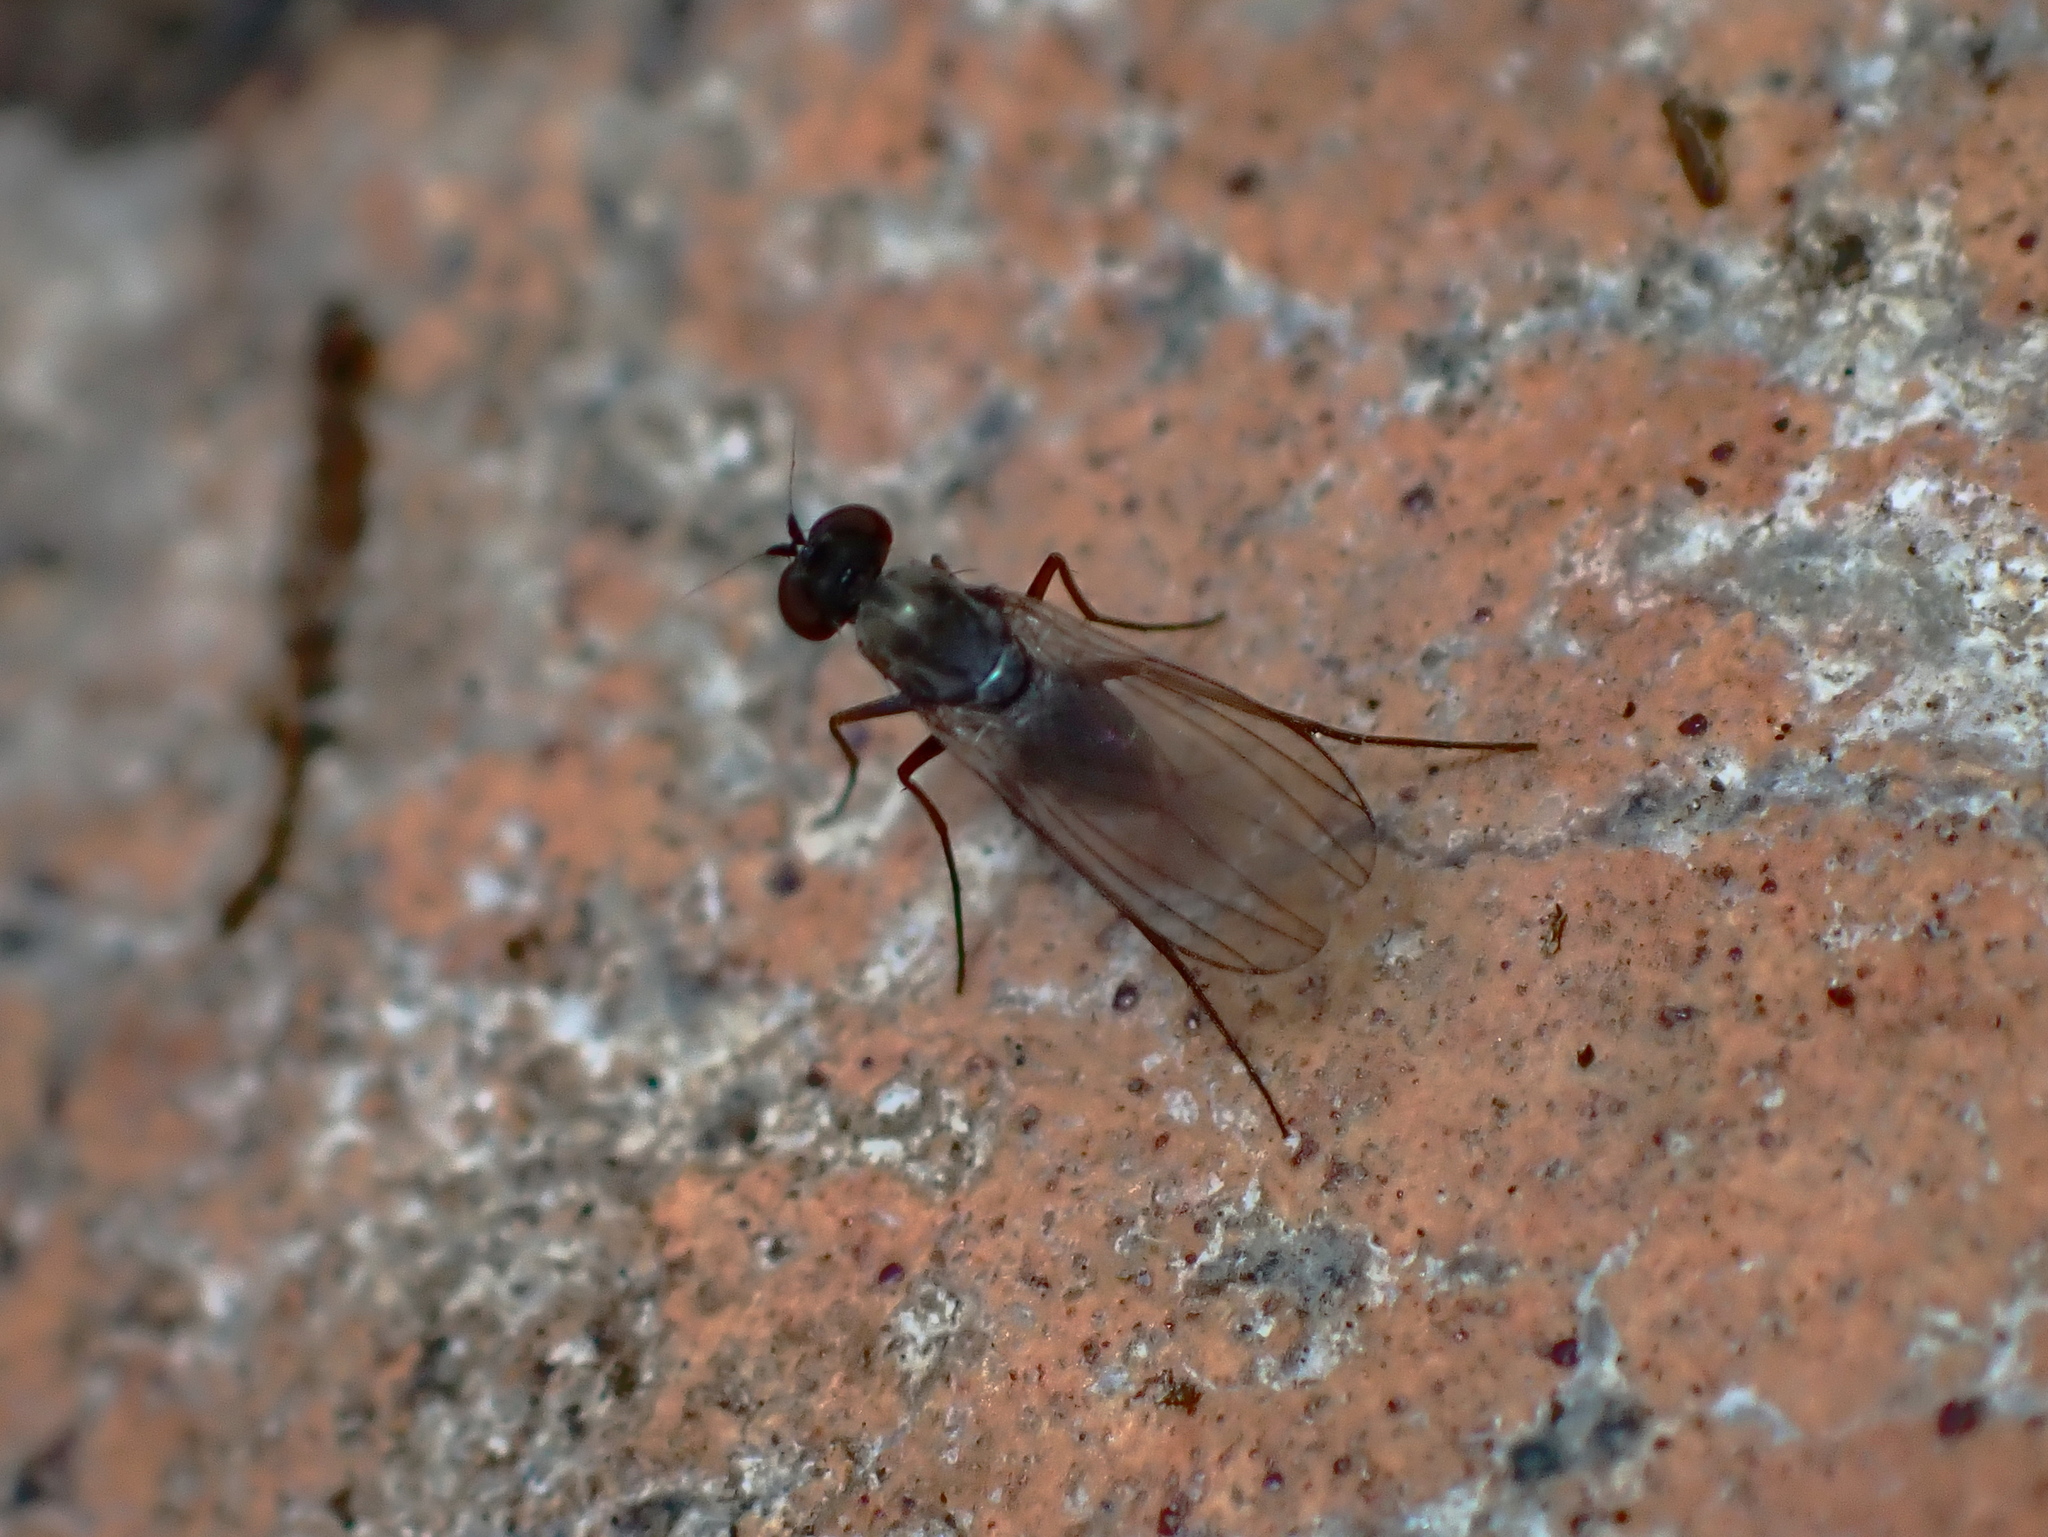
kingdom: Animalia
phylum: Arthropoda
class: Insecta
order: Diptera
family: Dolichopodidae
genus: Medetera
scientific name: Medetera grisescens
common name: Fly
